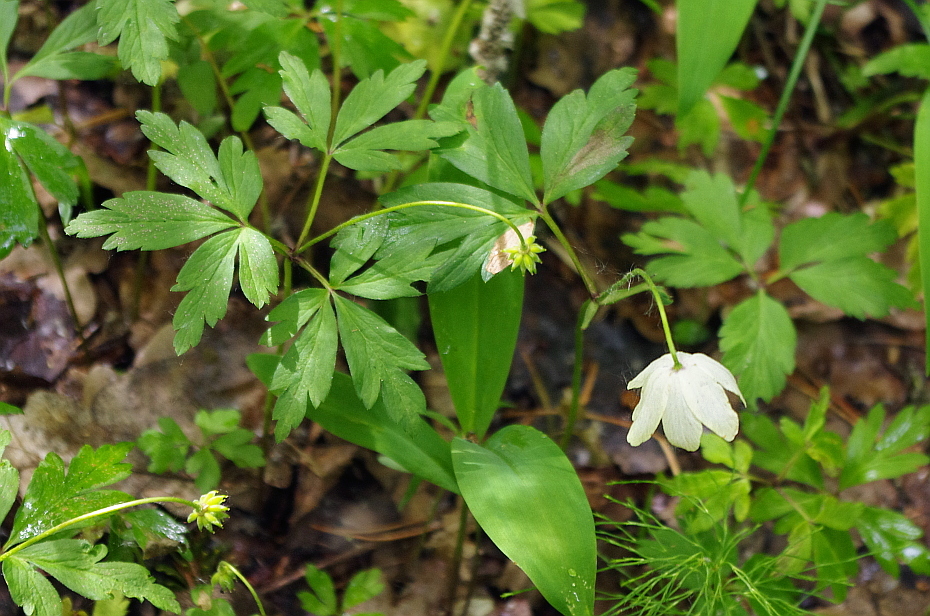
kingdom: Plantae
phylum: Tracheophyta
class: Magnoliopsida
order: Ranunculales
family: Ranunculaceae
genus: Anemone
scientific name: Anemone nemorosa
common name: Wood anemone
